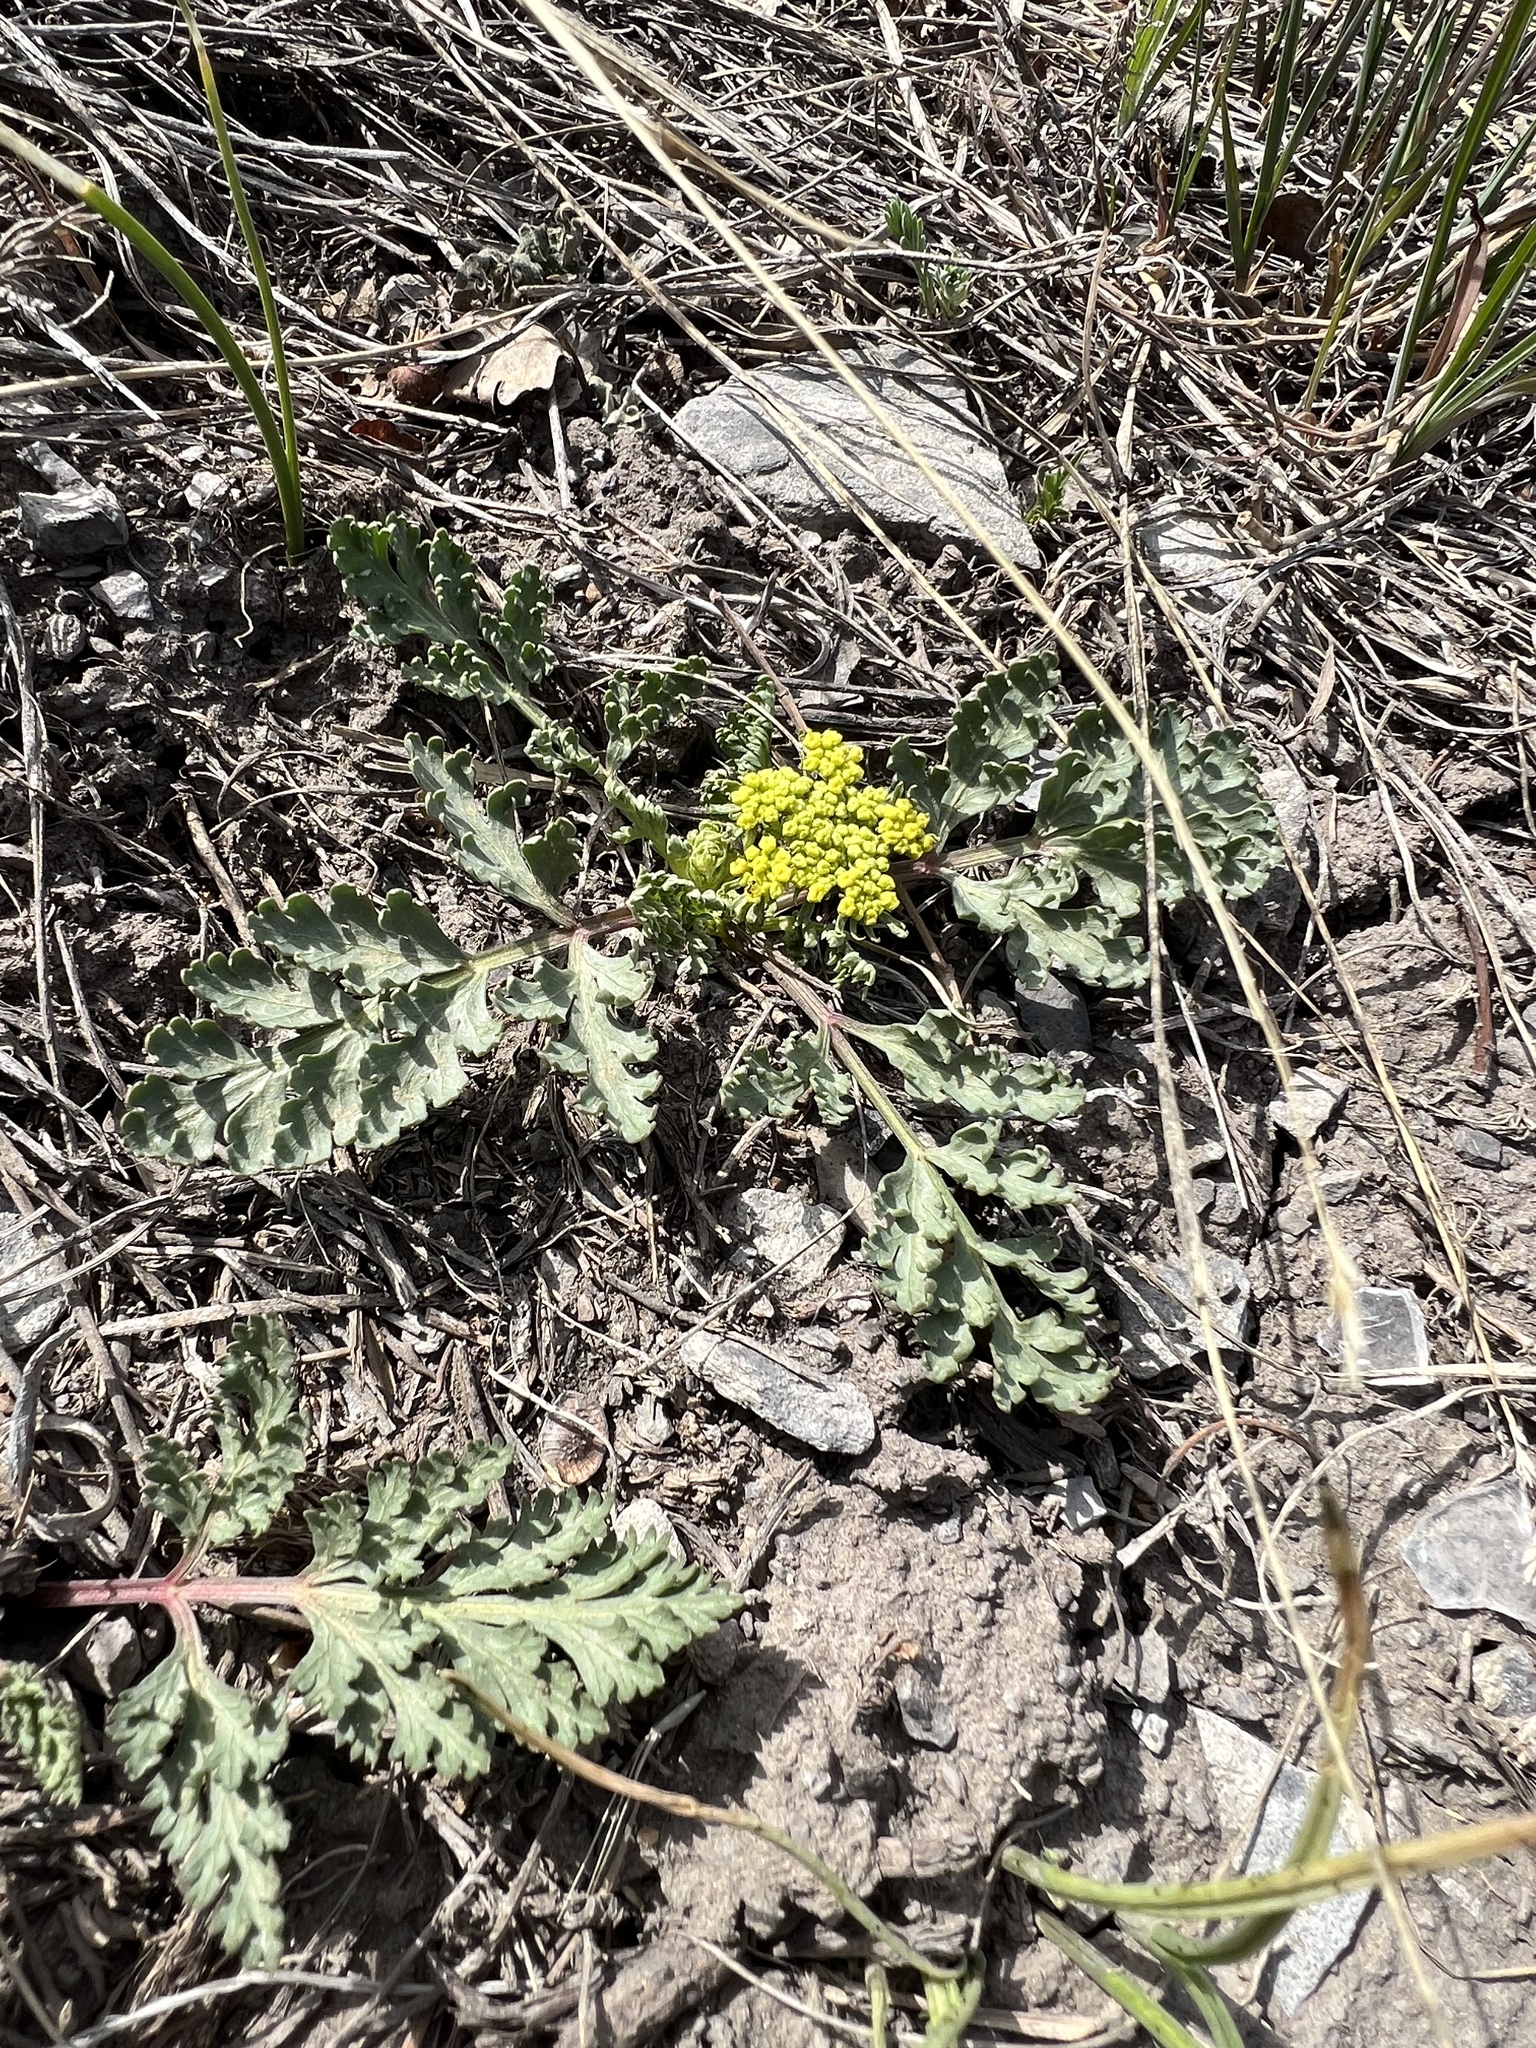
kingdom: Plantae
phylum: Tracheophyta
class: Magnoliopsida
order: Apiales
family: Apiaceae
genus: Musineon
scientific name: Musineon divaricatum
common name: Plains musineon
